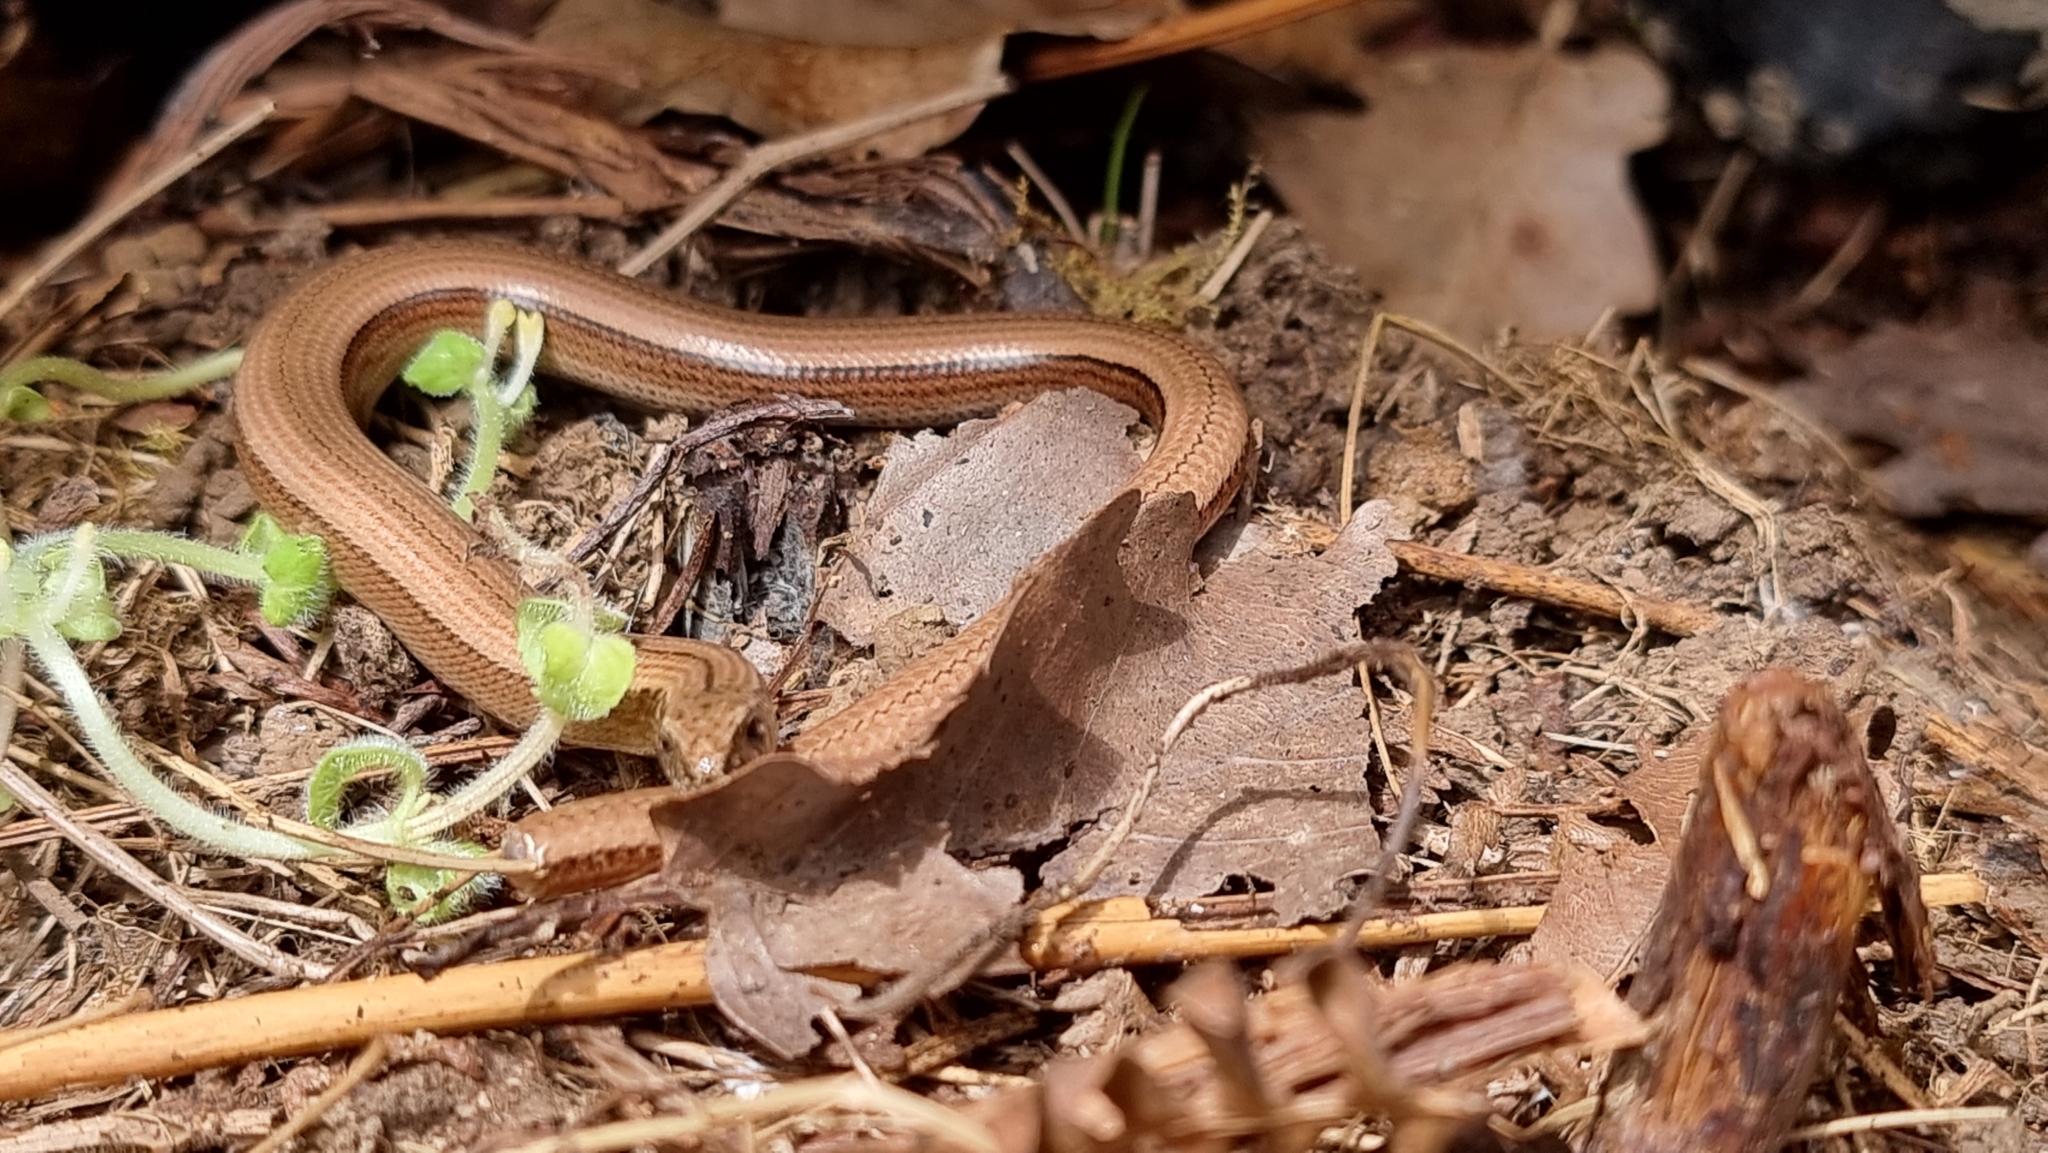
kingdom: Animalia
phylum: Chordata
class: Squamata
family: Anguidae
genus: Anguis
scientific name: Anguis fragilis
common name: Slow worm
